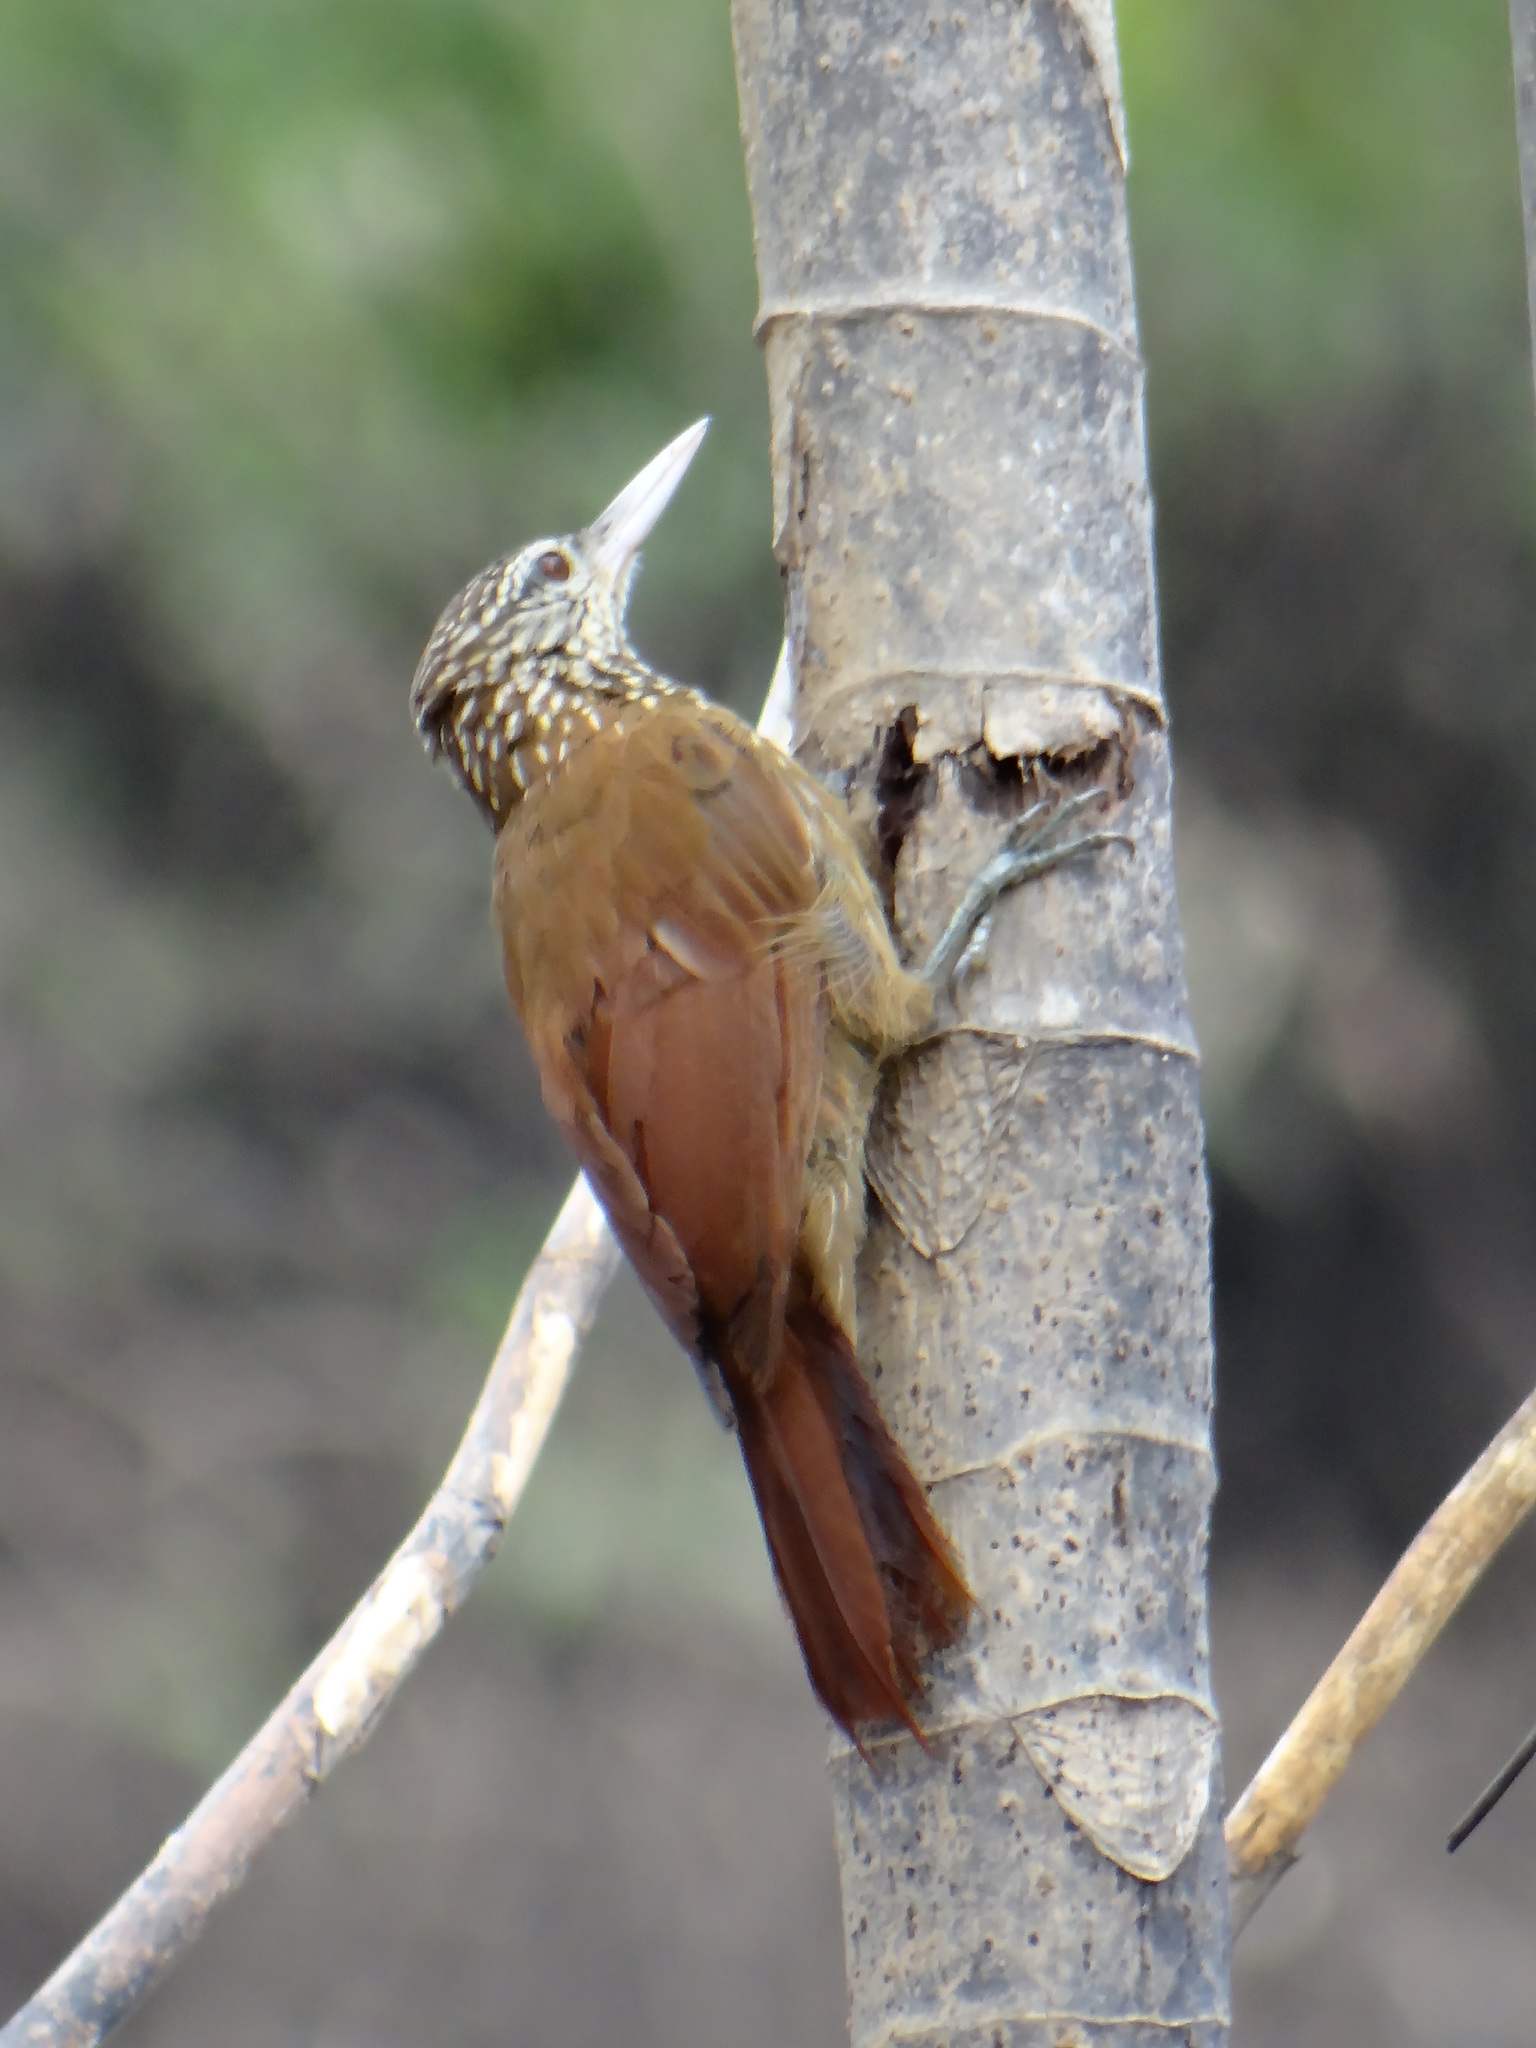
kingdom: Animalia
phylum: Chordata
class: Aves
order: Passeriformes
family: Furnariidae
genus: Xiphorhynchus
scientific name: Xiphorhynchus picus
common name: Straight-billed woodcreeper
